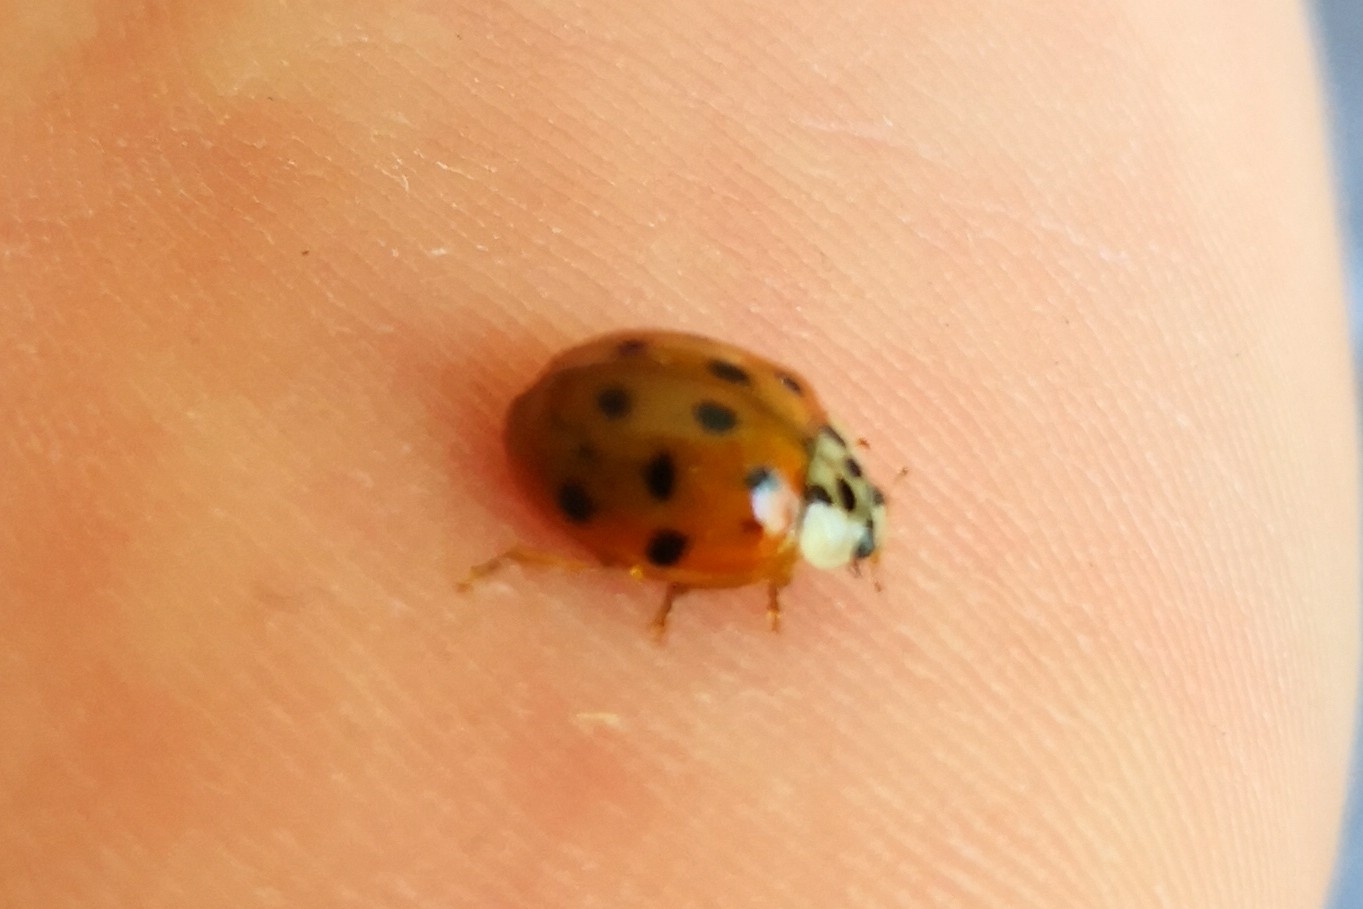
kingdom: Animalia
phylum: Arthropoda
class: Insecta
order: Coleoptera
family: Coccinellidae
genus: Harmonia
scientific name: Harmonia axyridis
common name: Harlequin ladybird
